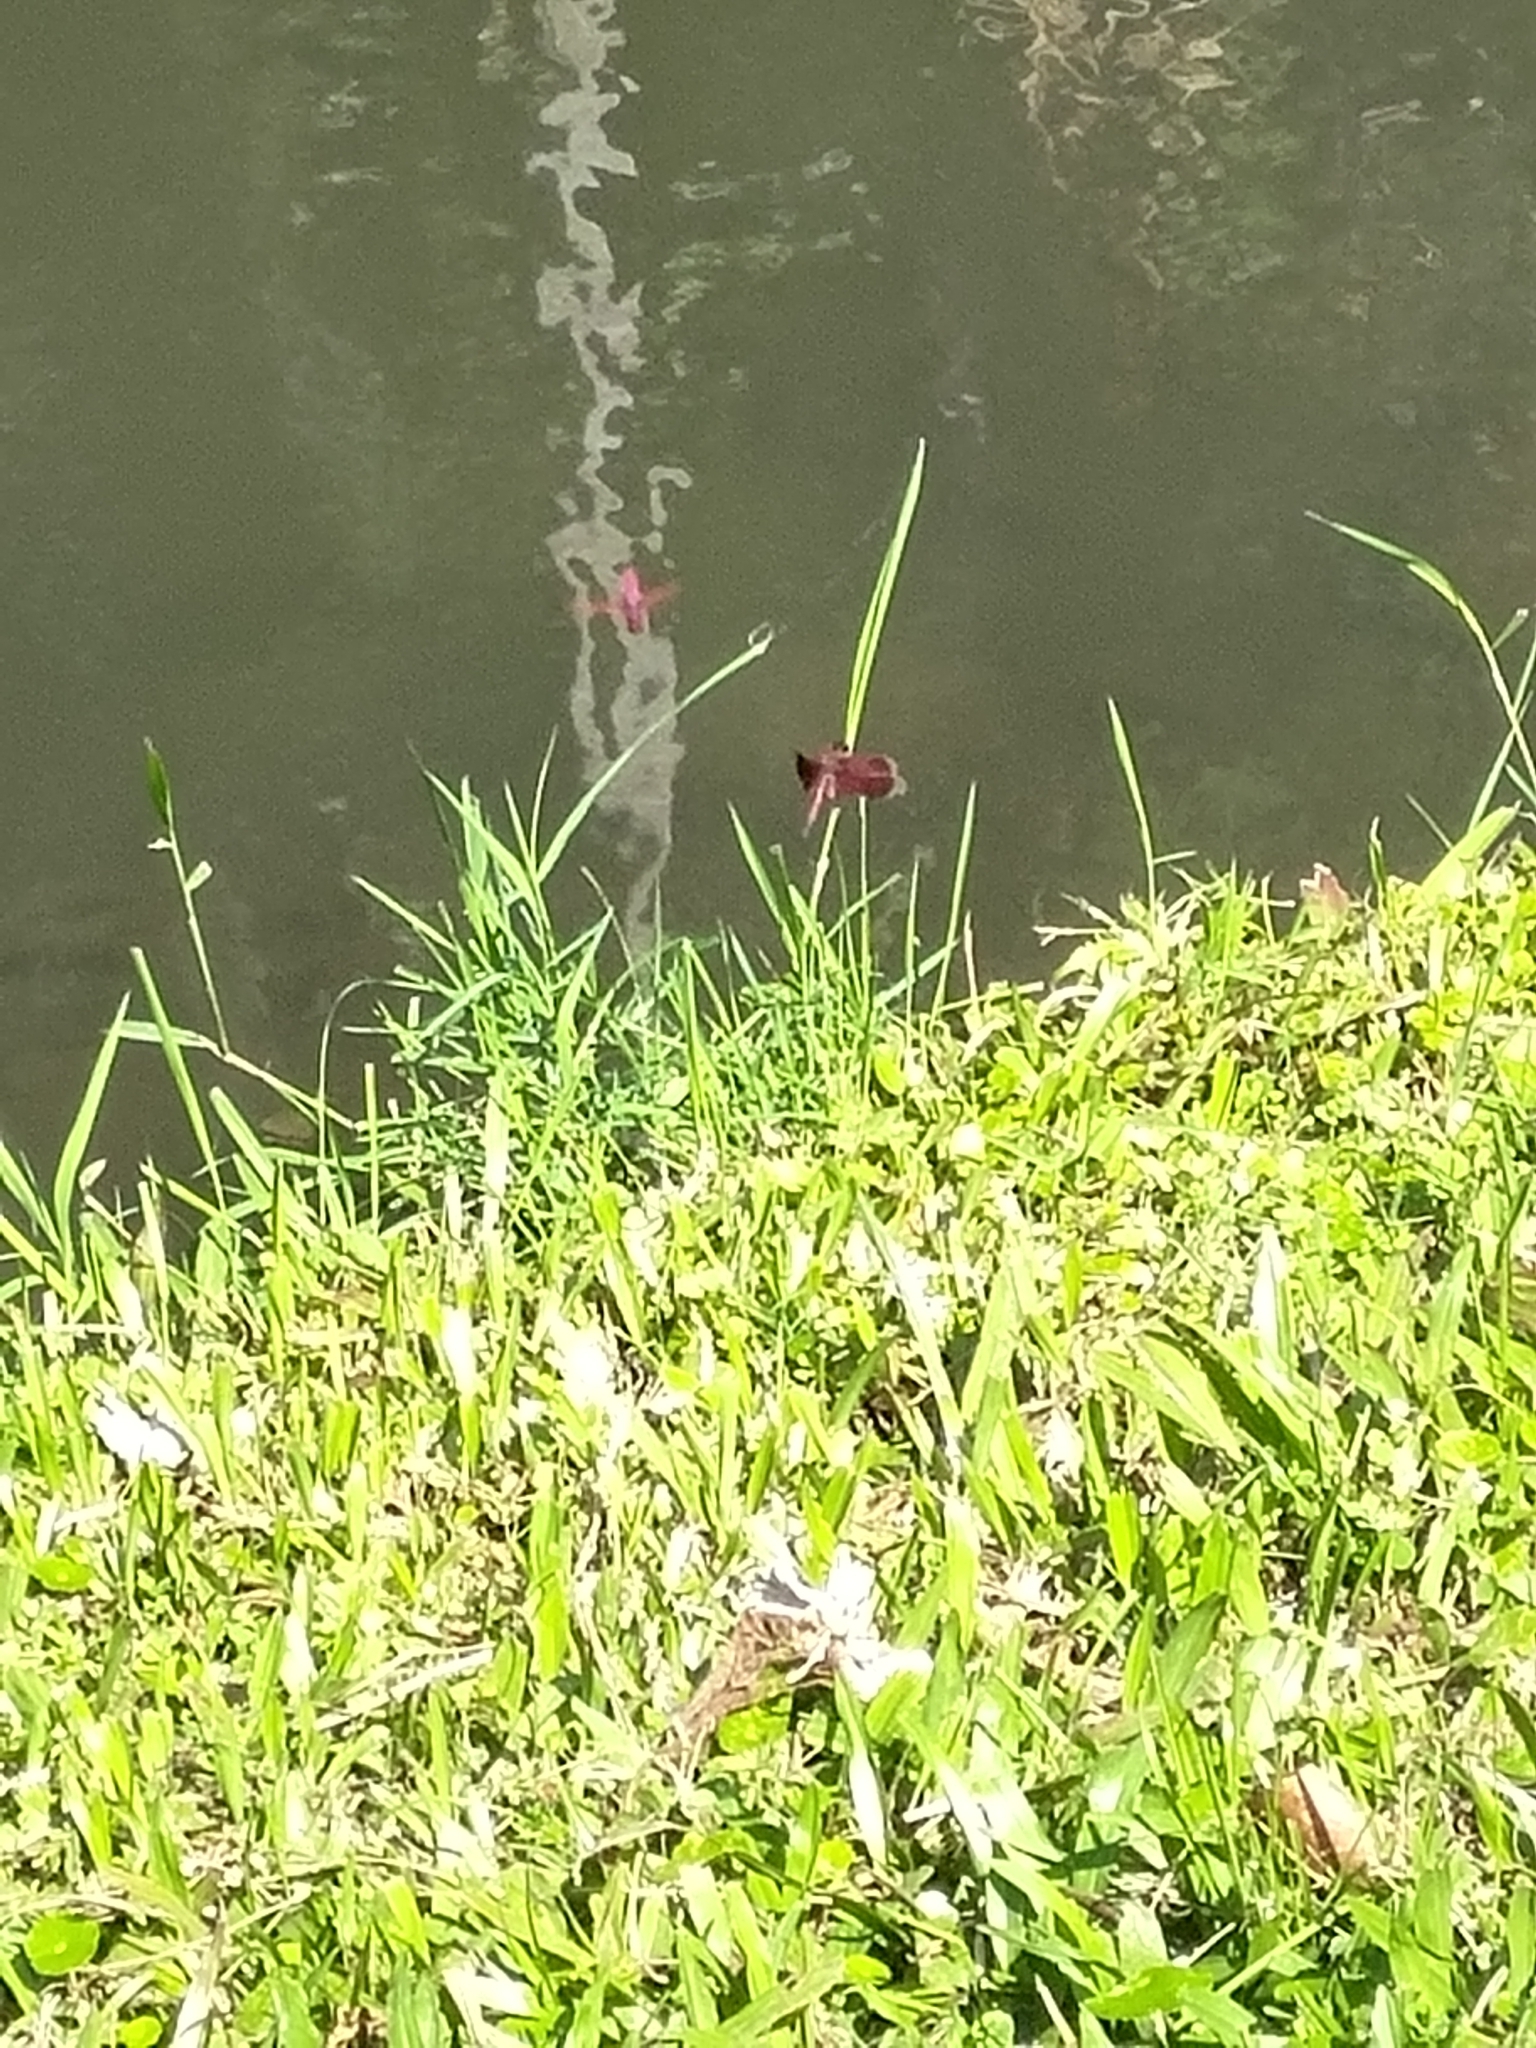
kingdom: Animalia
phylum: Arthropoda
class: Insecta
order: Odonata
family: Libellulidae
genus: Neurothemis
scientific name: Neurothemis taiwanensis
